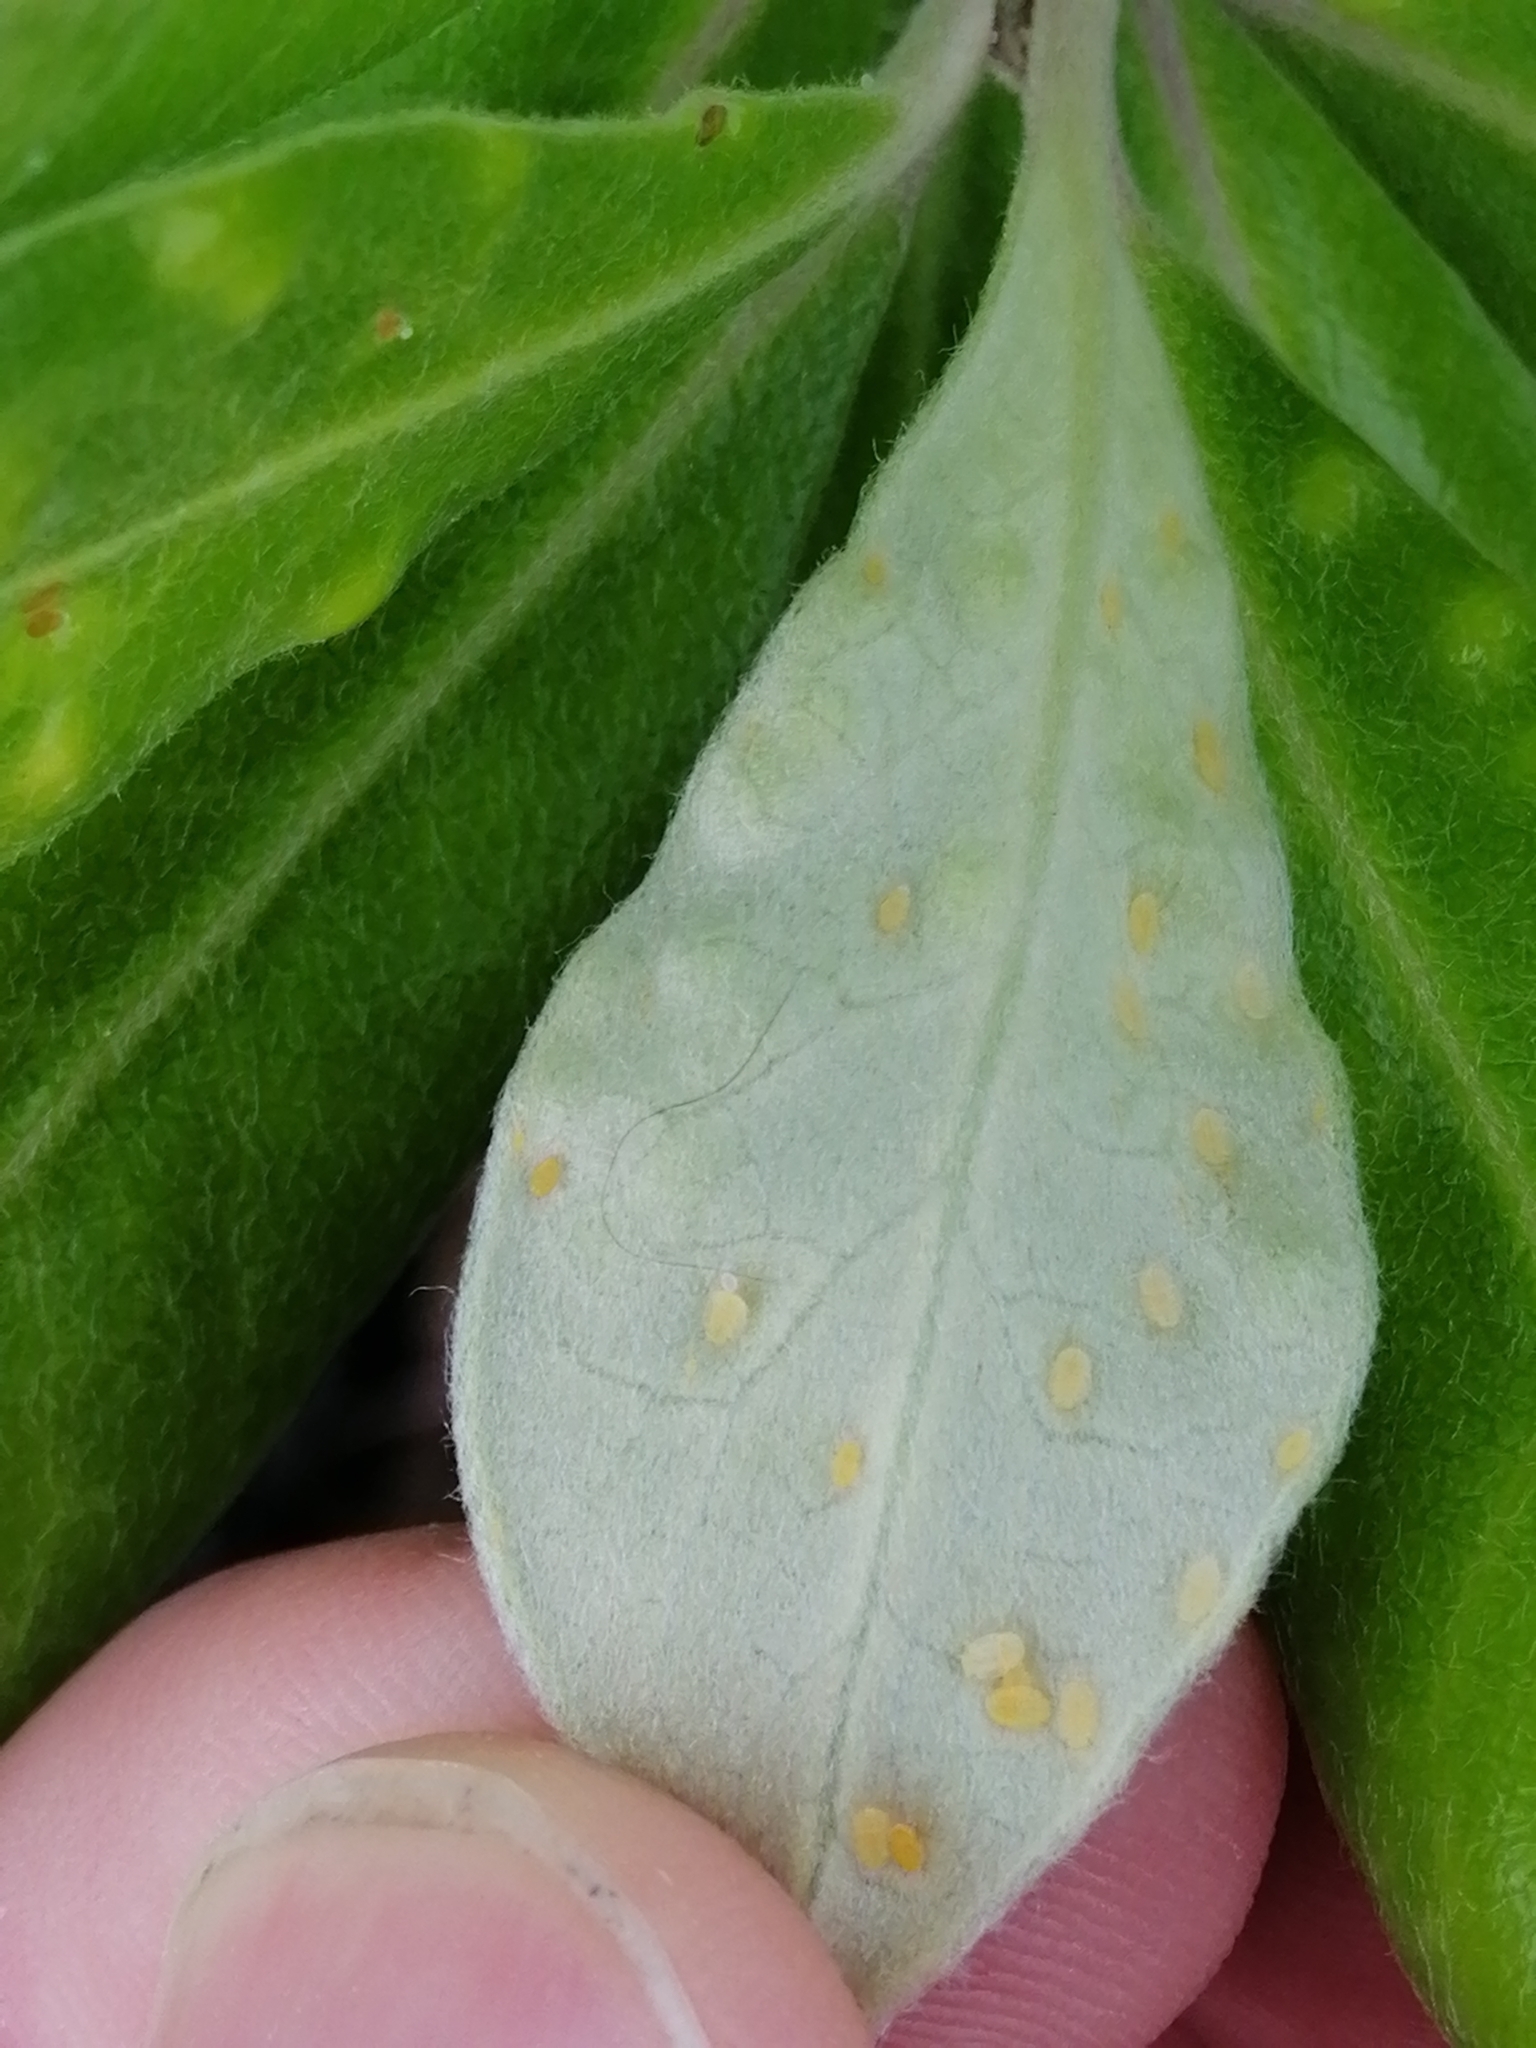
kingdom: Animalia
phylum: Arthropoda
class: Insecta
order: Hemiptera
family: Triozidae
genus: Powellia
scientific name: Powellia vitreoradiata
